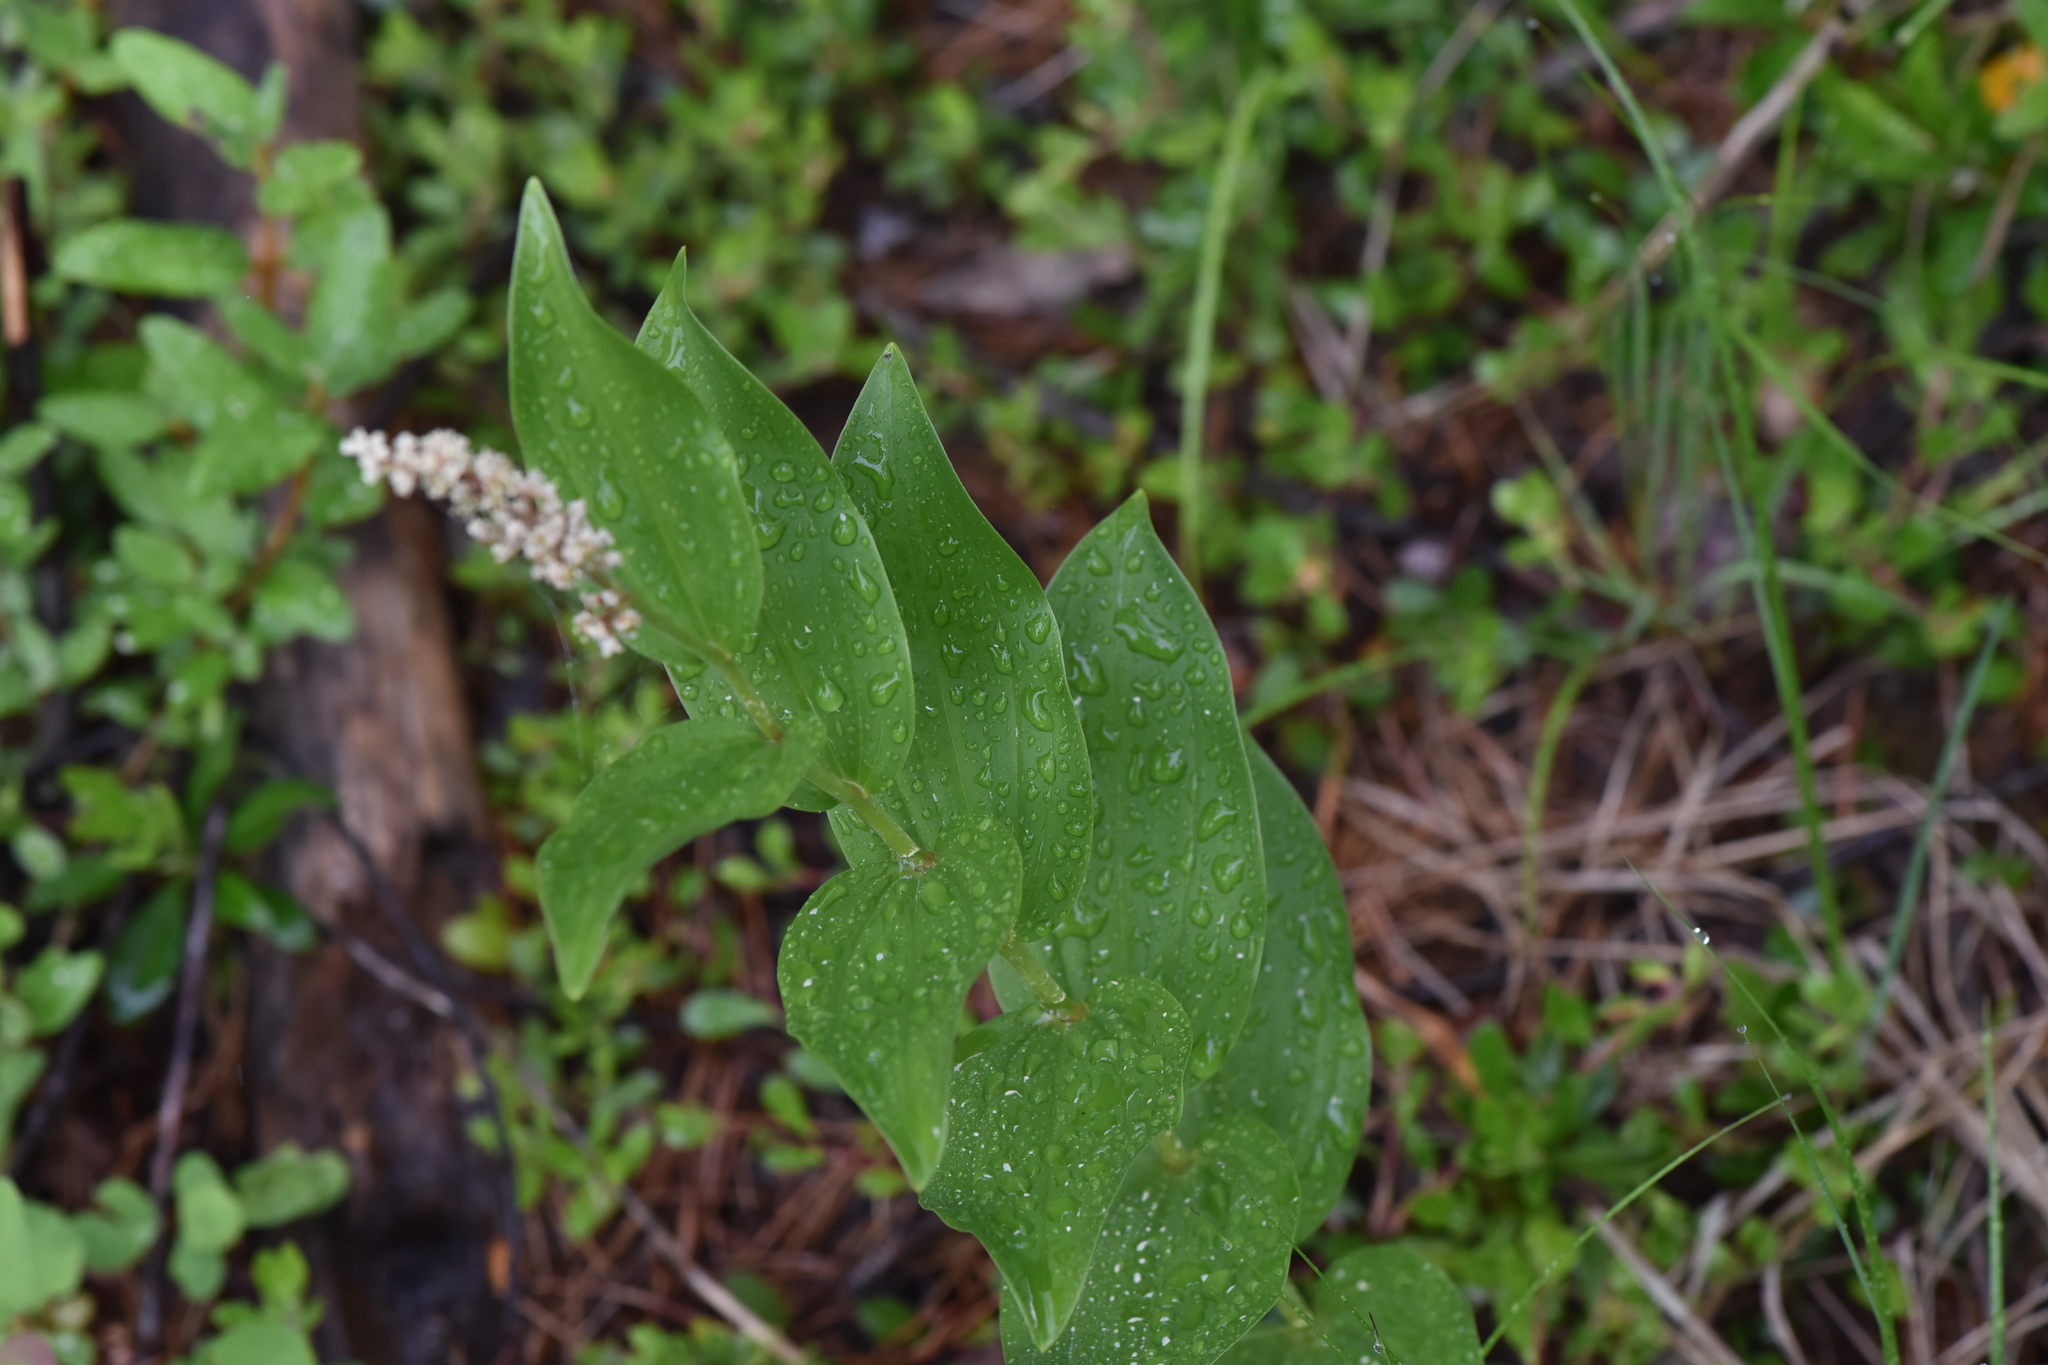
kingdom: Plantae
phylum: Tracheophyta
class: Liliopsida
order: Asparagales
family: Asparagaceae
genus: Maianthemum
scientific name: Maianthemum racemosum
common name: False spikenard
